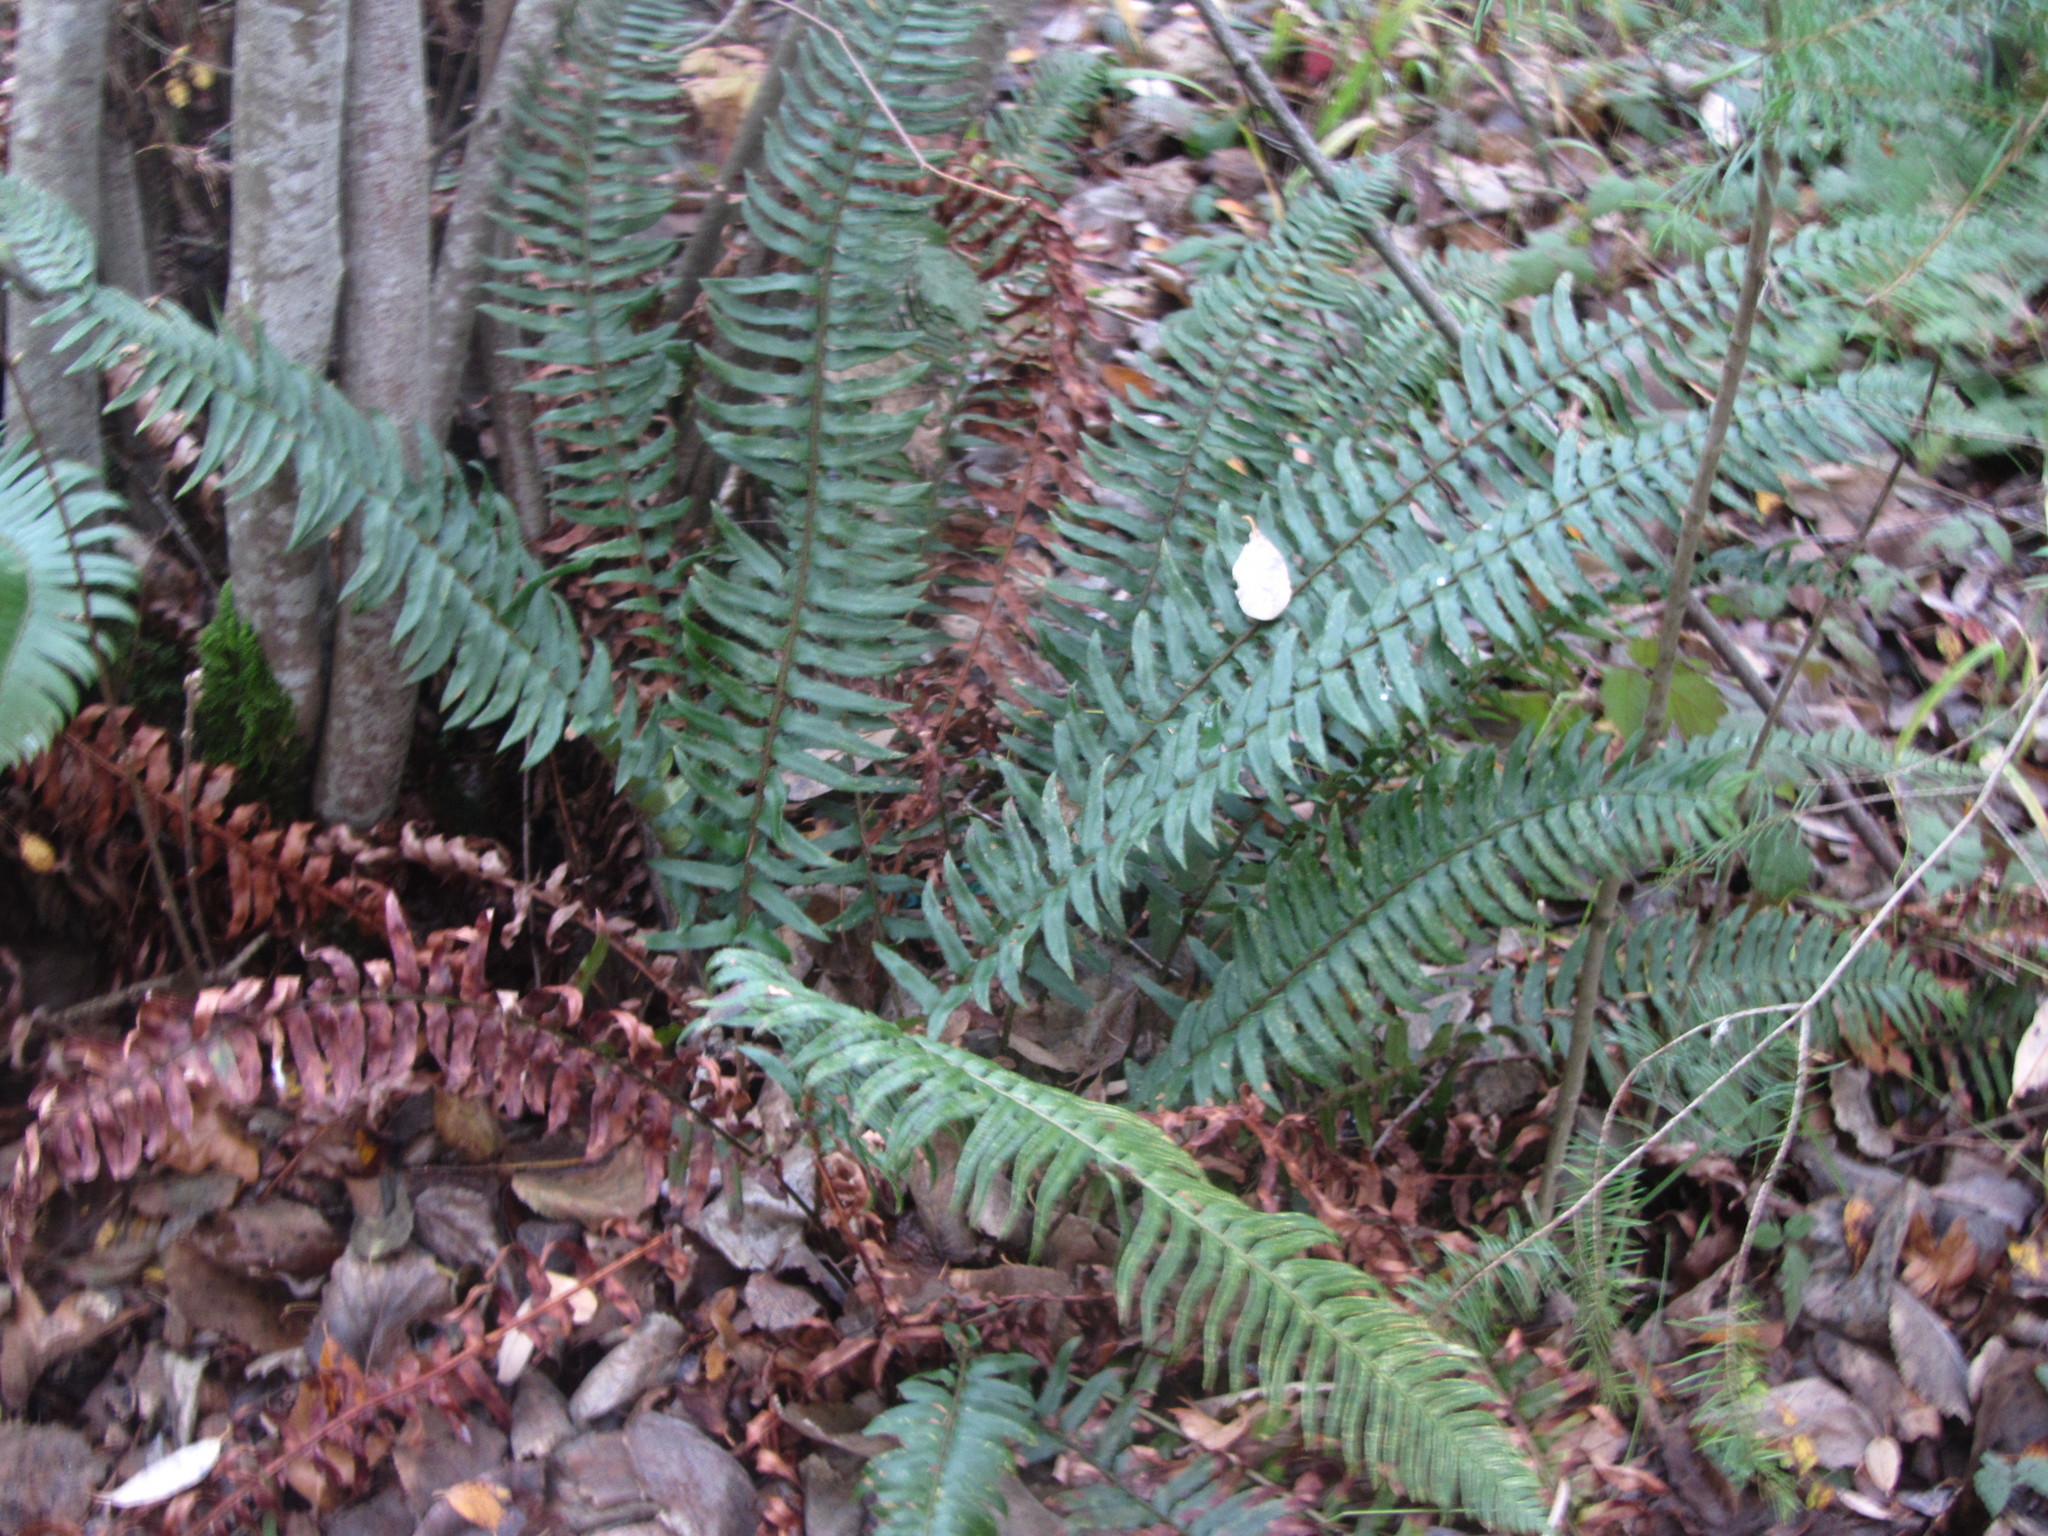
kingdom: Plantae
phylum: Tracheophyta
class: Polypodiopsida
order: Polypodiales
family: Dryopteridaceae
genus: Polystichum
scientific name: Polystichum munitum
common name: Western sword-fern
